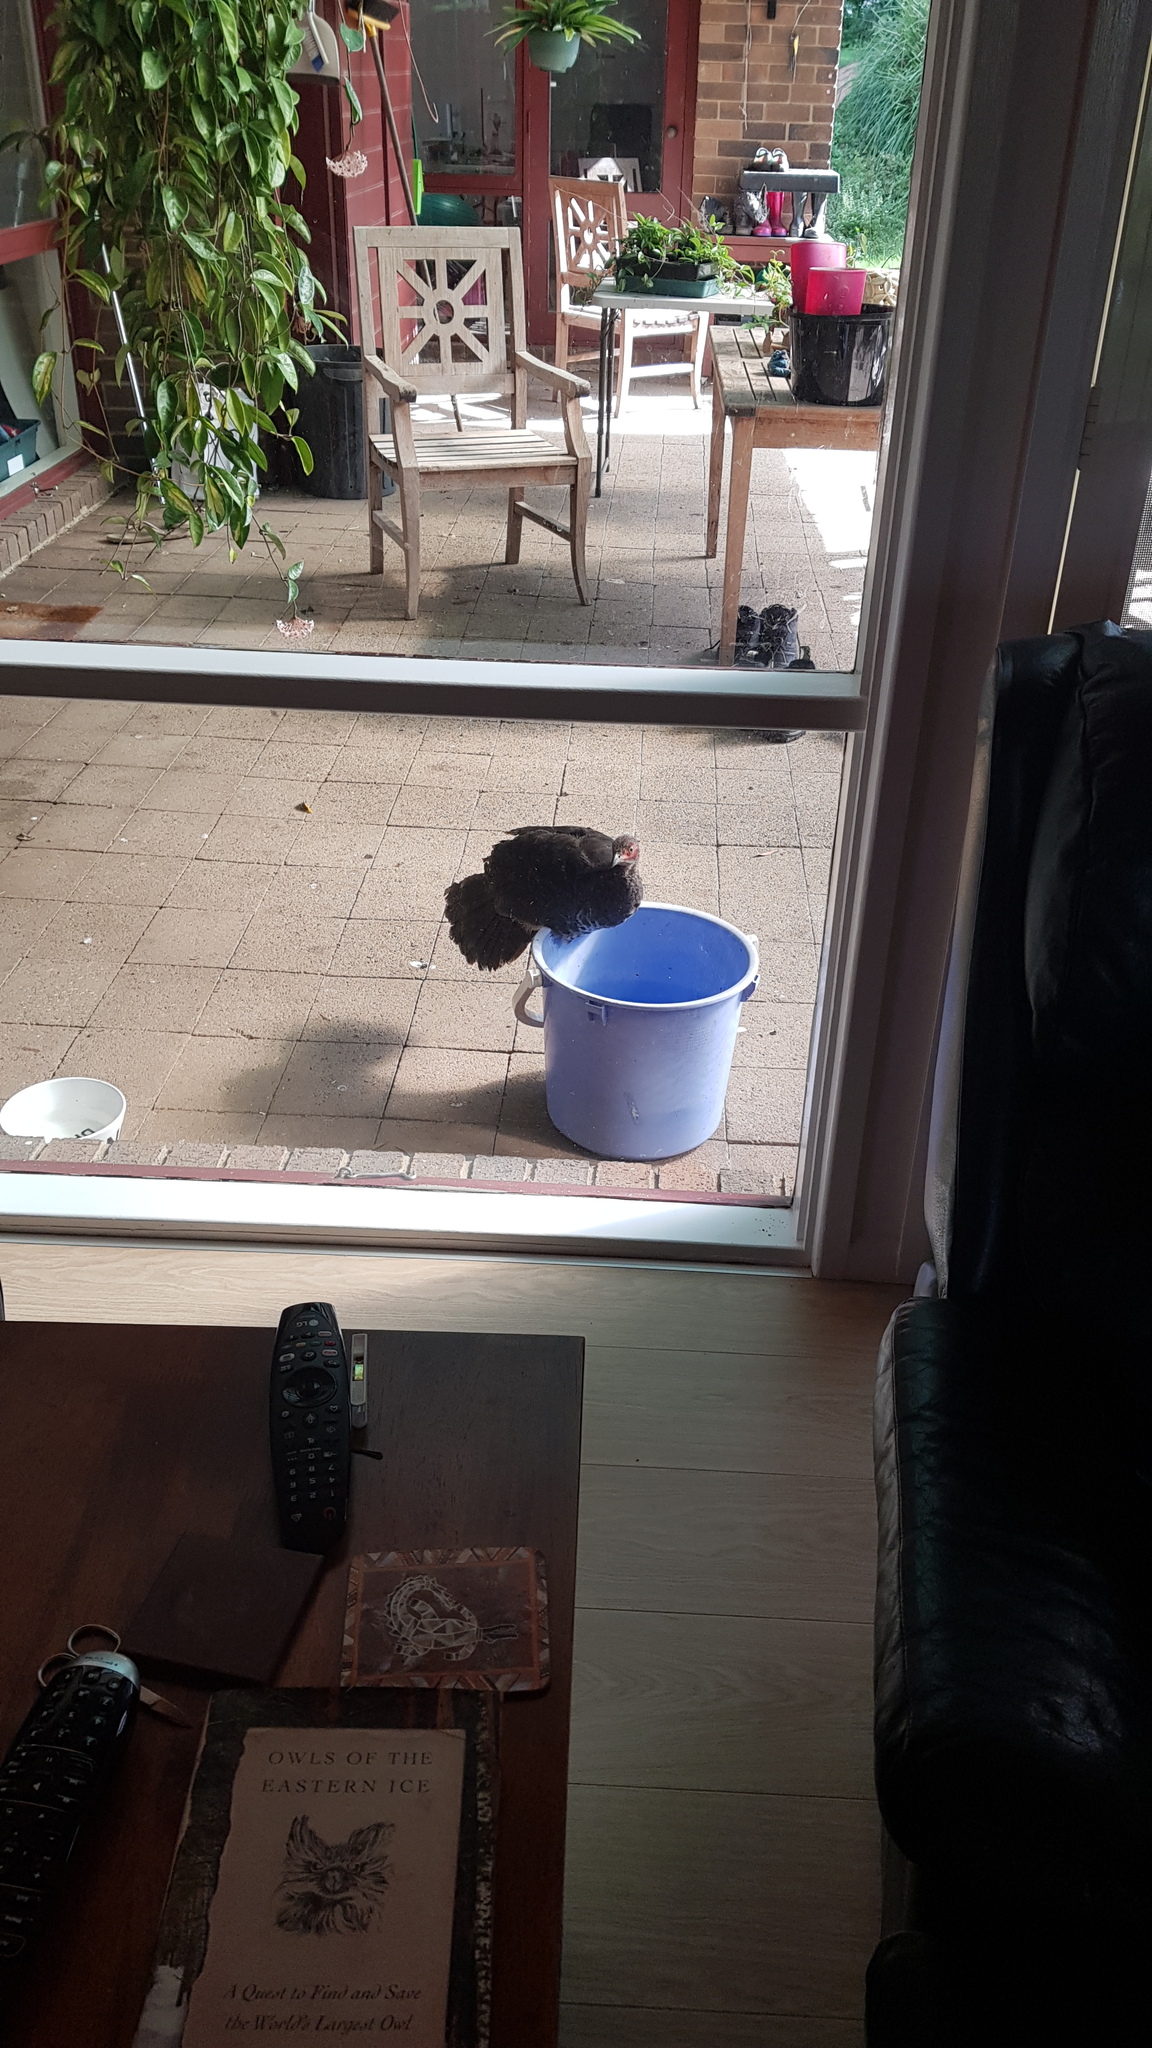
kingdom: Animalia
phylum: Chordata
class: Aves
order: Galliformes
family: Megapodiidae
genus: Alectura
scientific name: Alectura lathami
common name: Australian brushturkey
